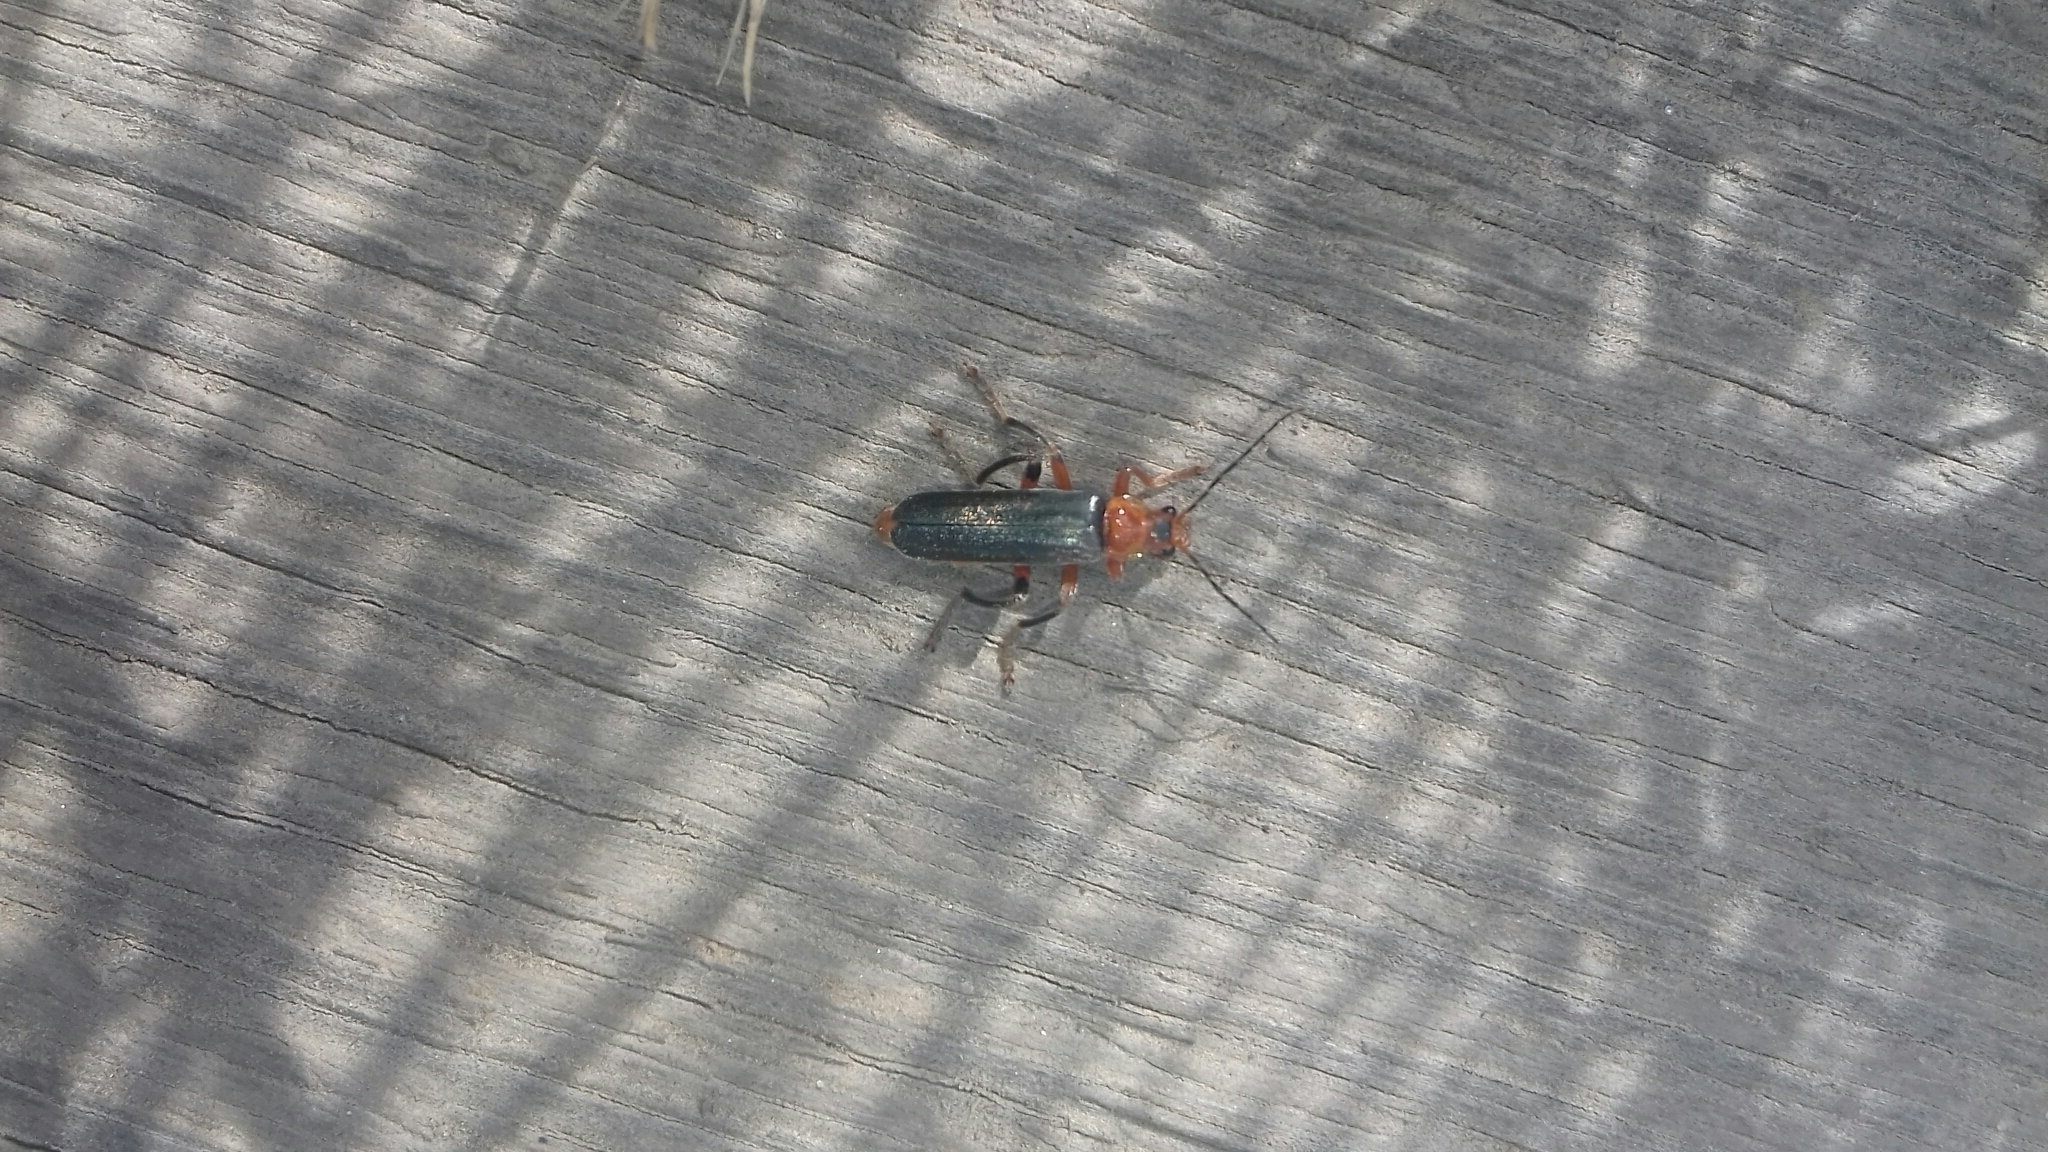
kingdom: Animalia
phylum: Arthropoda
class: Insecta
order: Coleoptera
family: Cantharidae
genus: Cantharis
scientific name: Cantharis livida
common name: Livid soldier beetle
